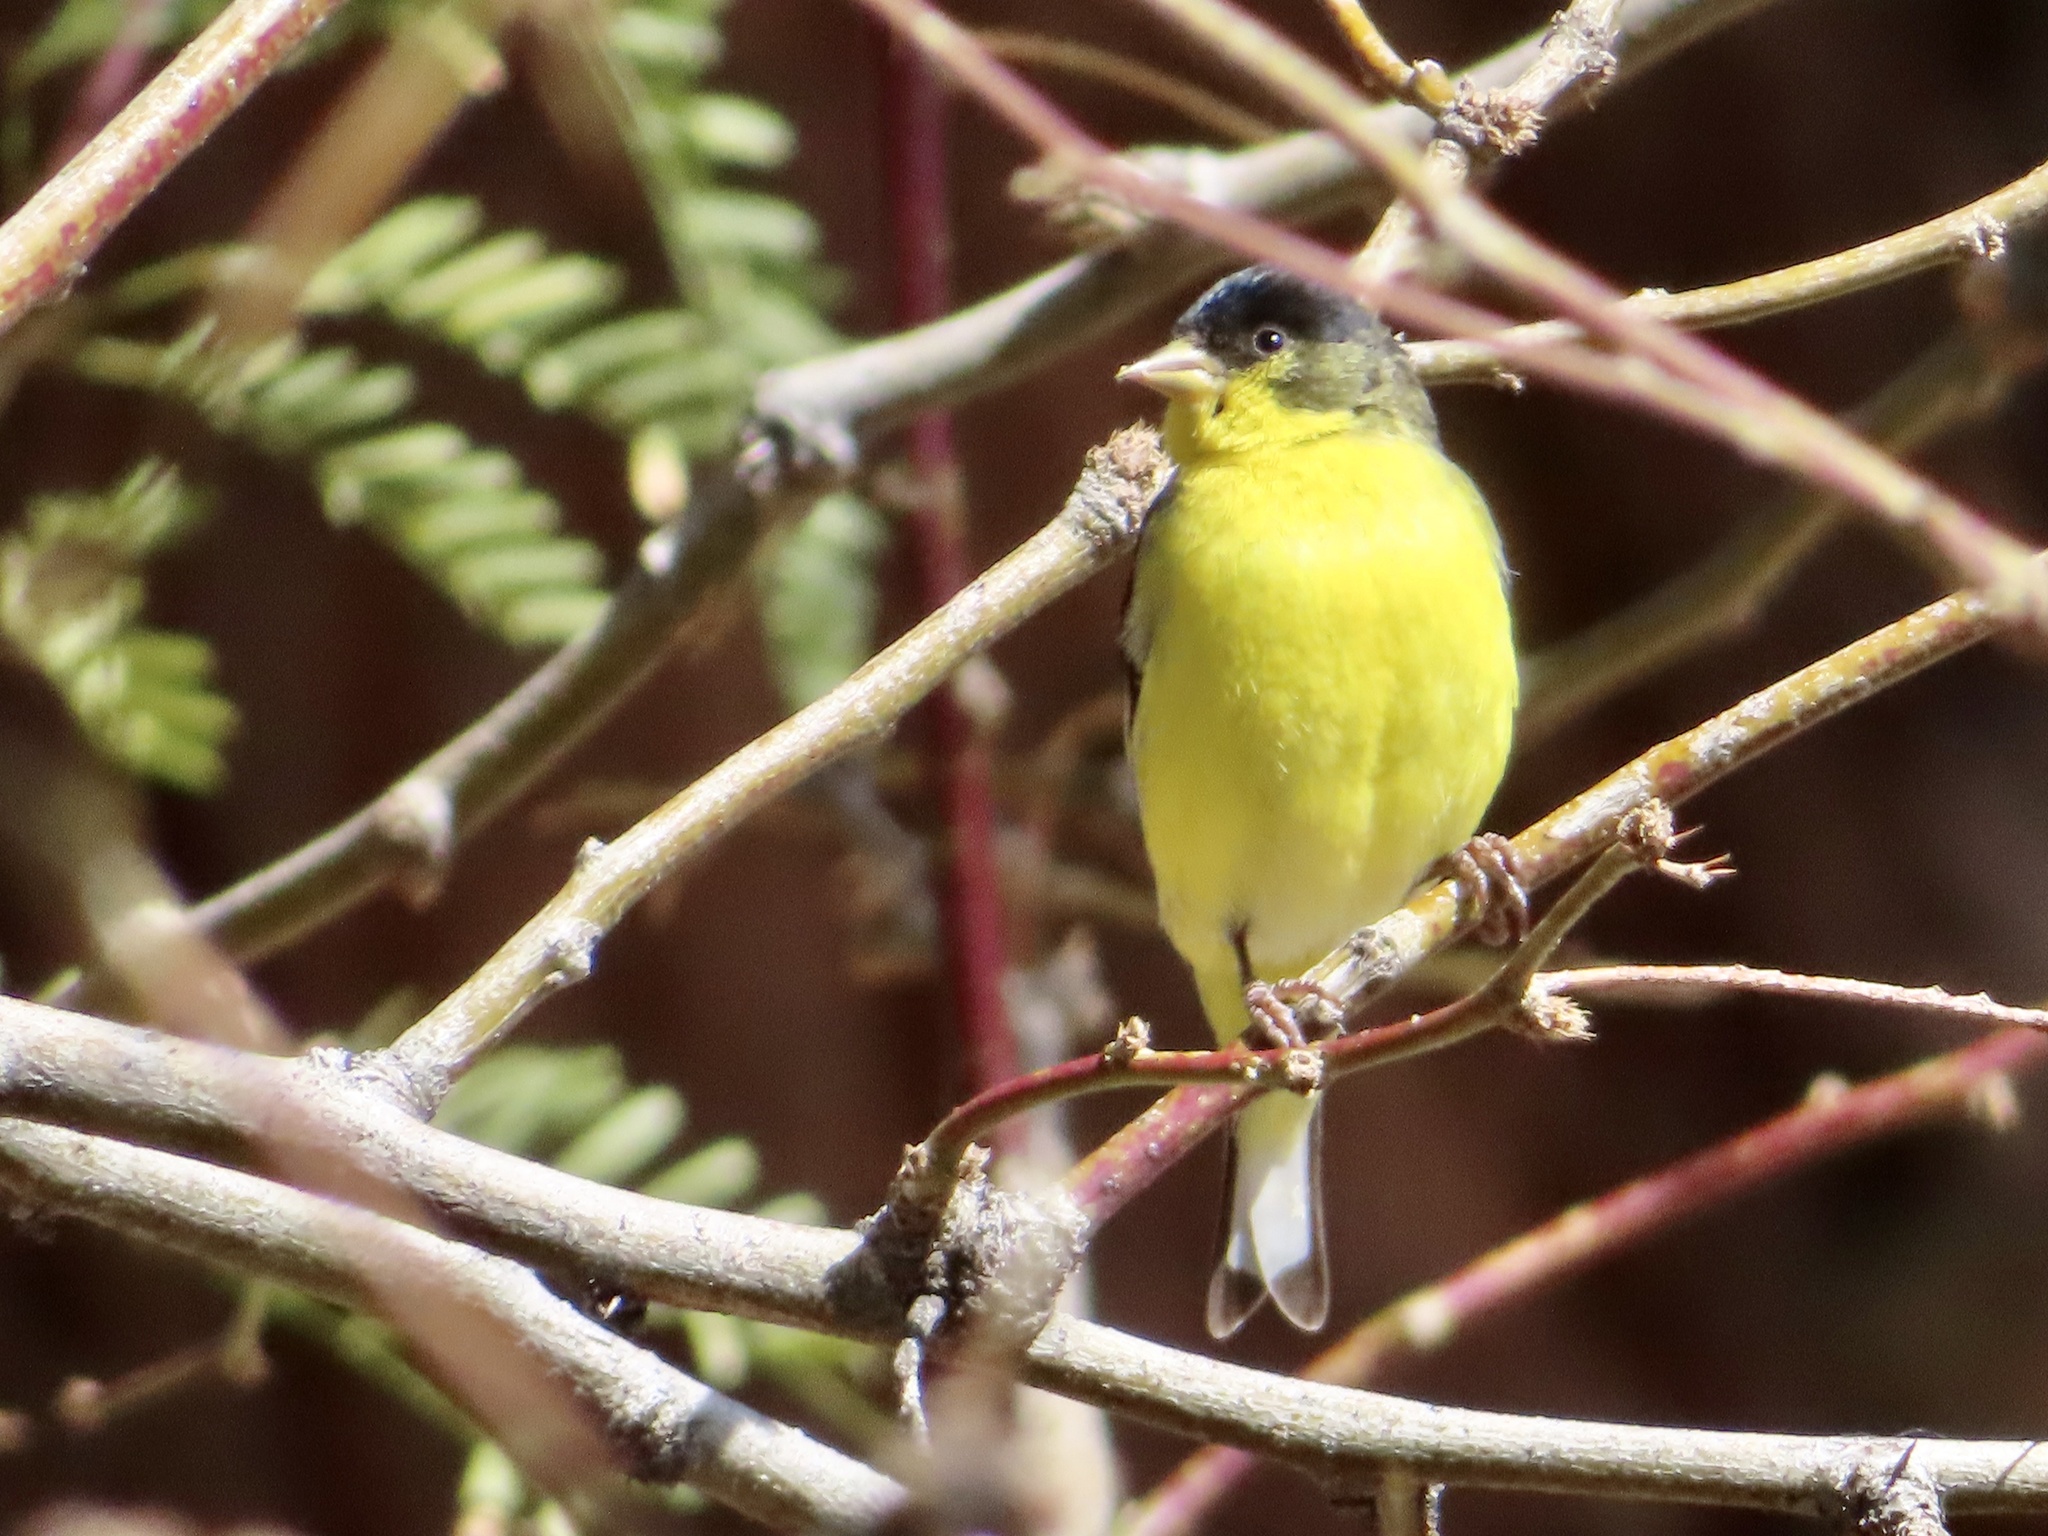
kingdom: Animalia
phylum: Chordata
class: Aves
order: Passeriformes
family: Fringillidae
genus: Spinus
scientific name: Spinus psaltria
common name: Lesser goldfinch
